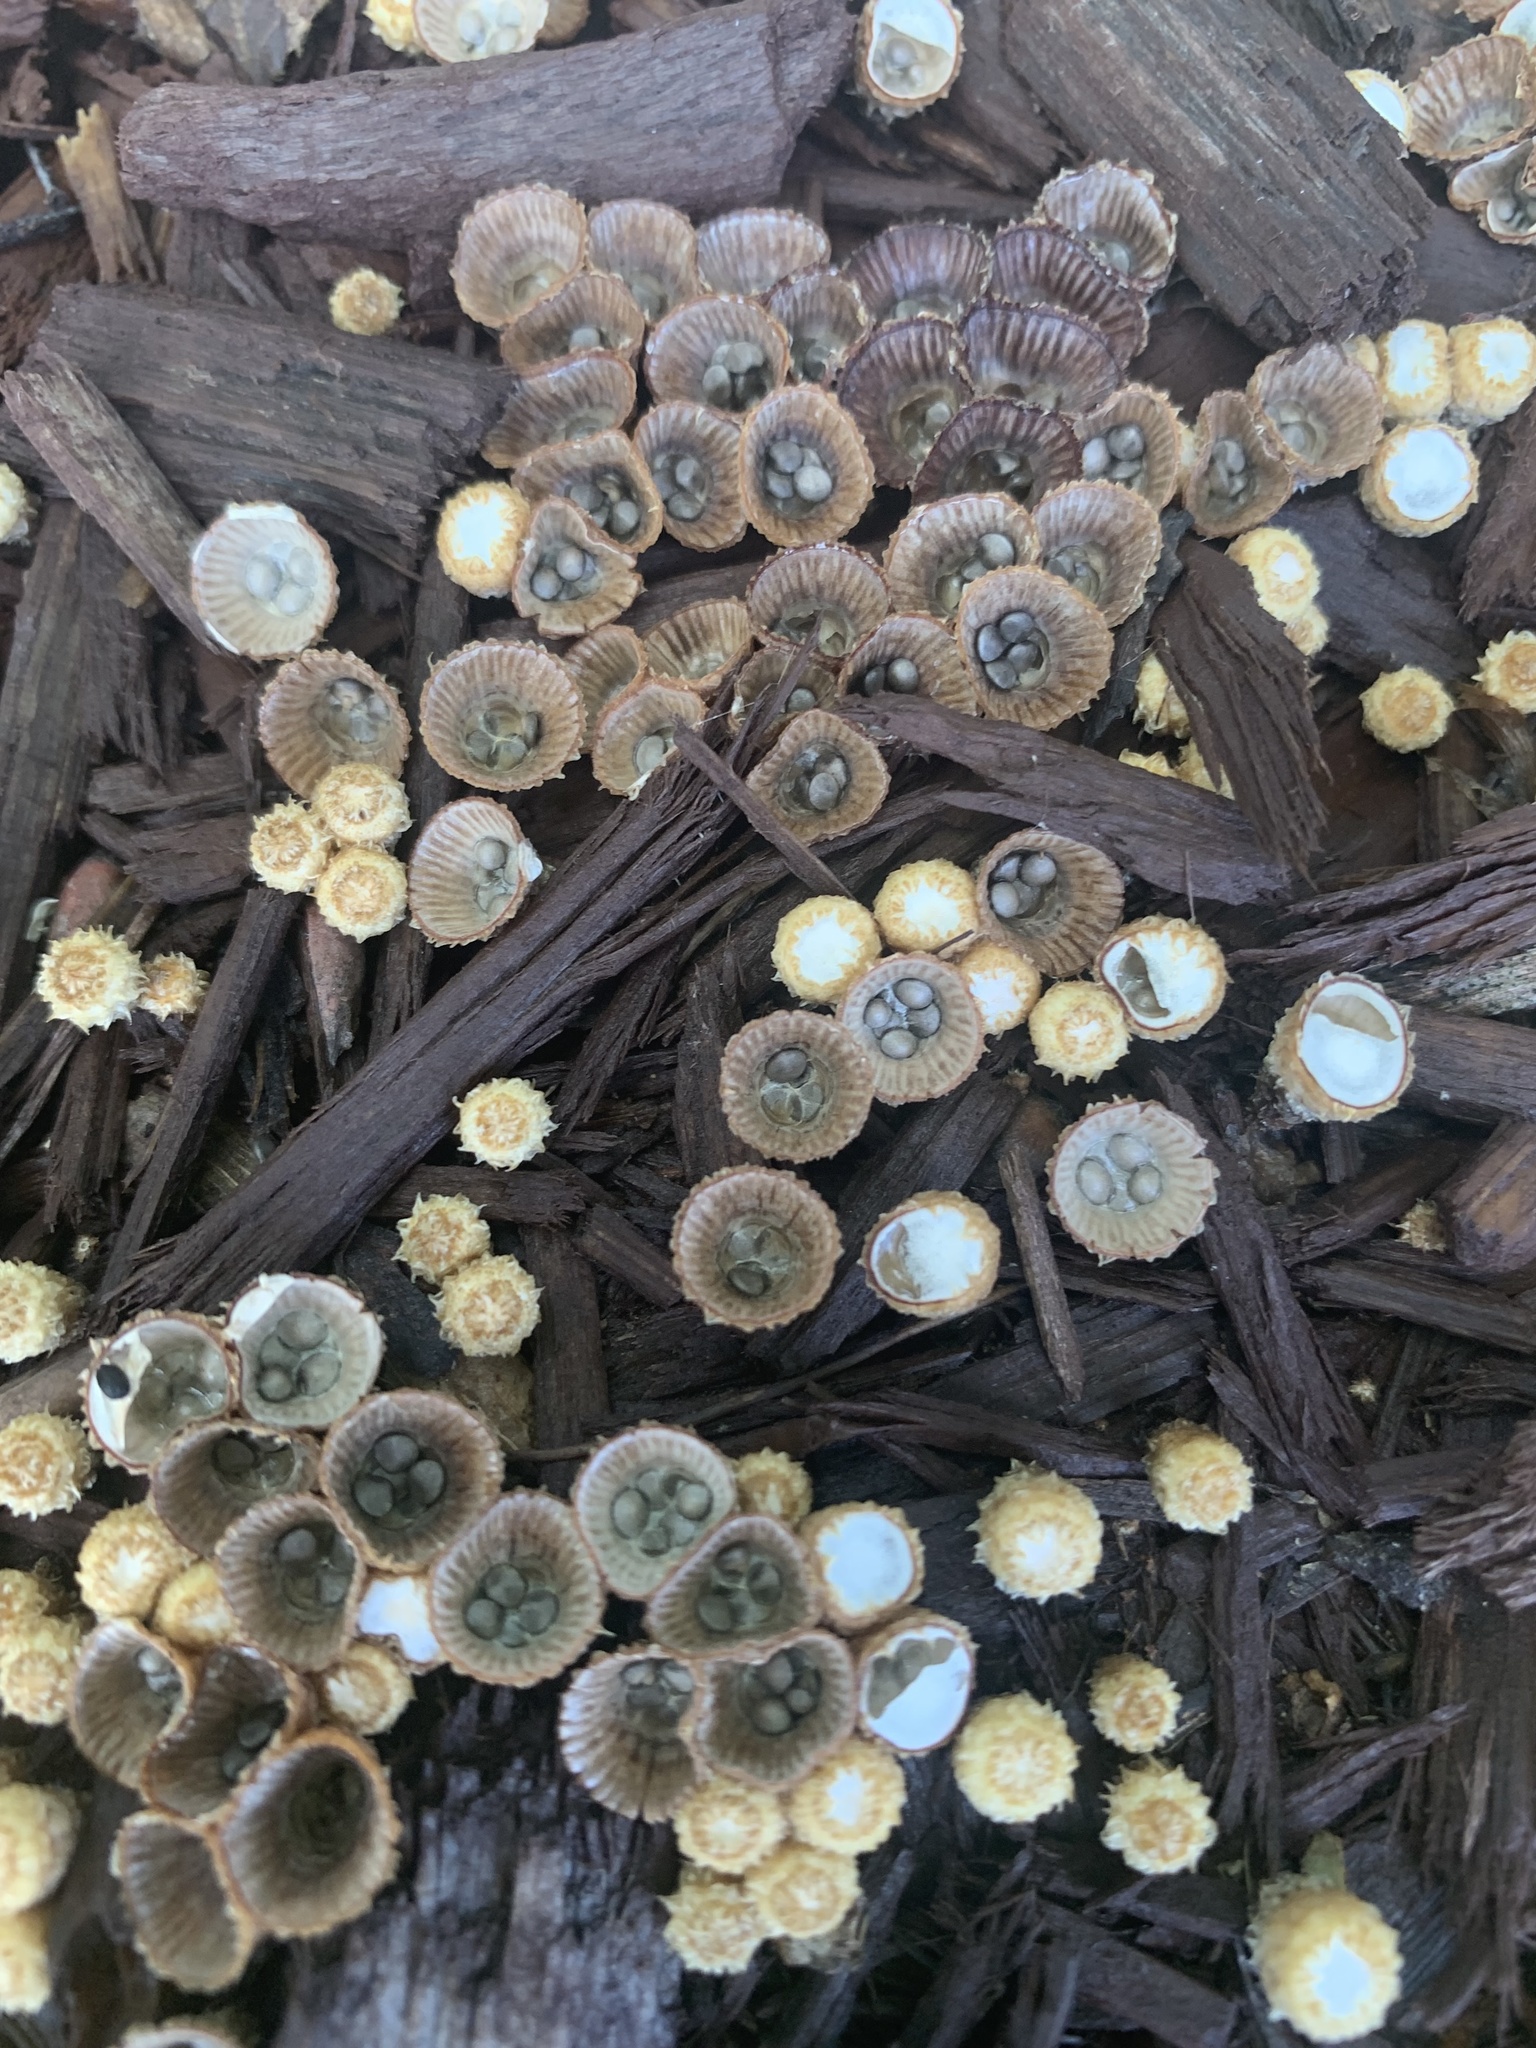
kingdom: Fungi
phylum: Basidiomycota
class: Agaricomycetes
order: Agaricales
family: Agaricaceae
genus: Cyathus
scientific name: Cyathus striatus
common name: Fluted bird's nest
